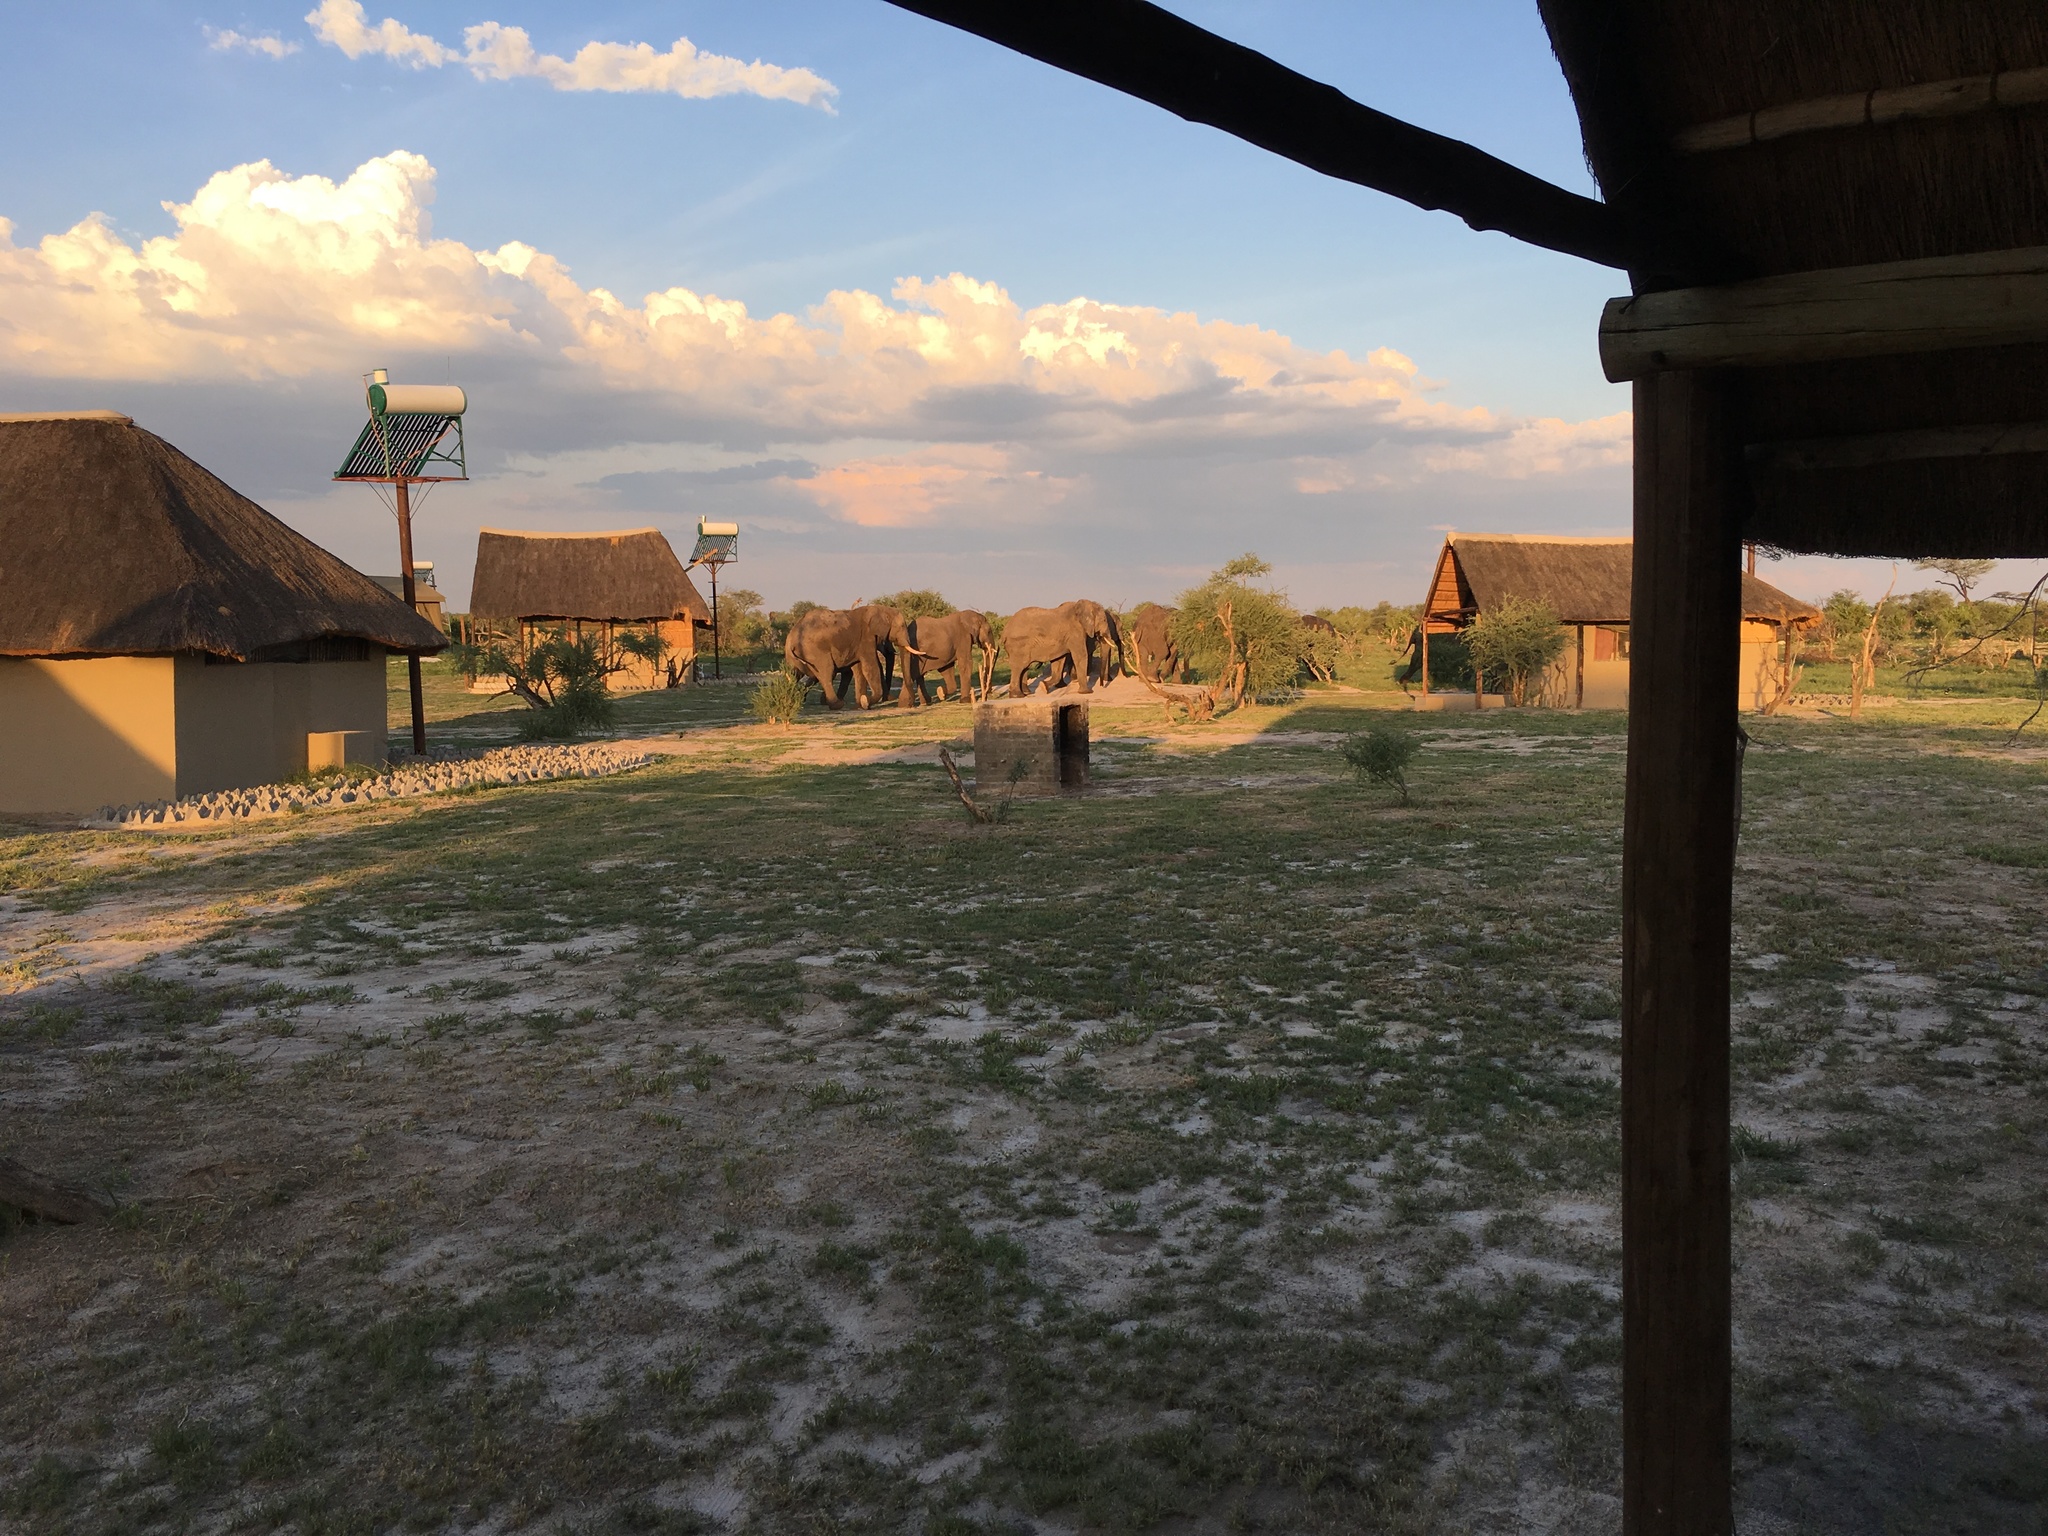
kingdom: Animalia
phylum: Chordata
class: Mammalia
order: Proboscidea
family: Elephantidae
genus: Loxodonta
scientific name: Loxodonta africana
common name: African elephant
